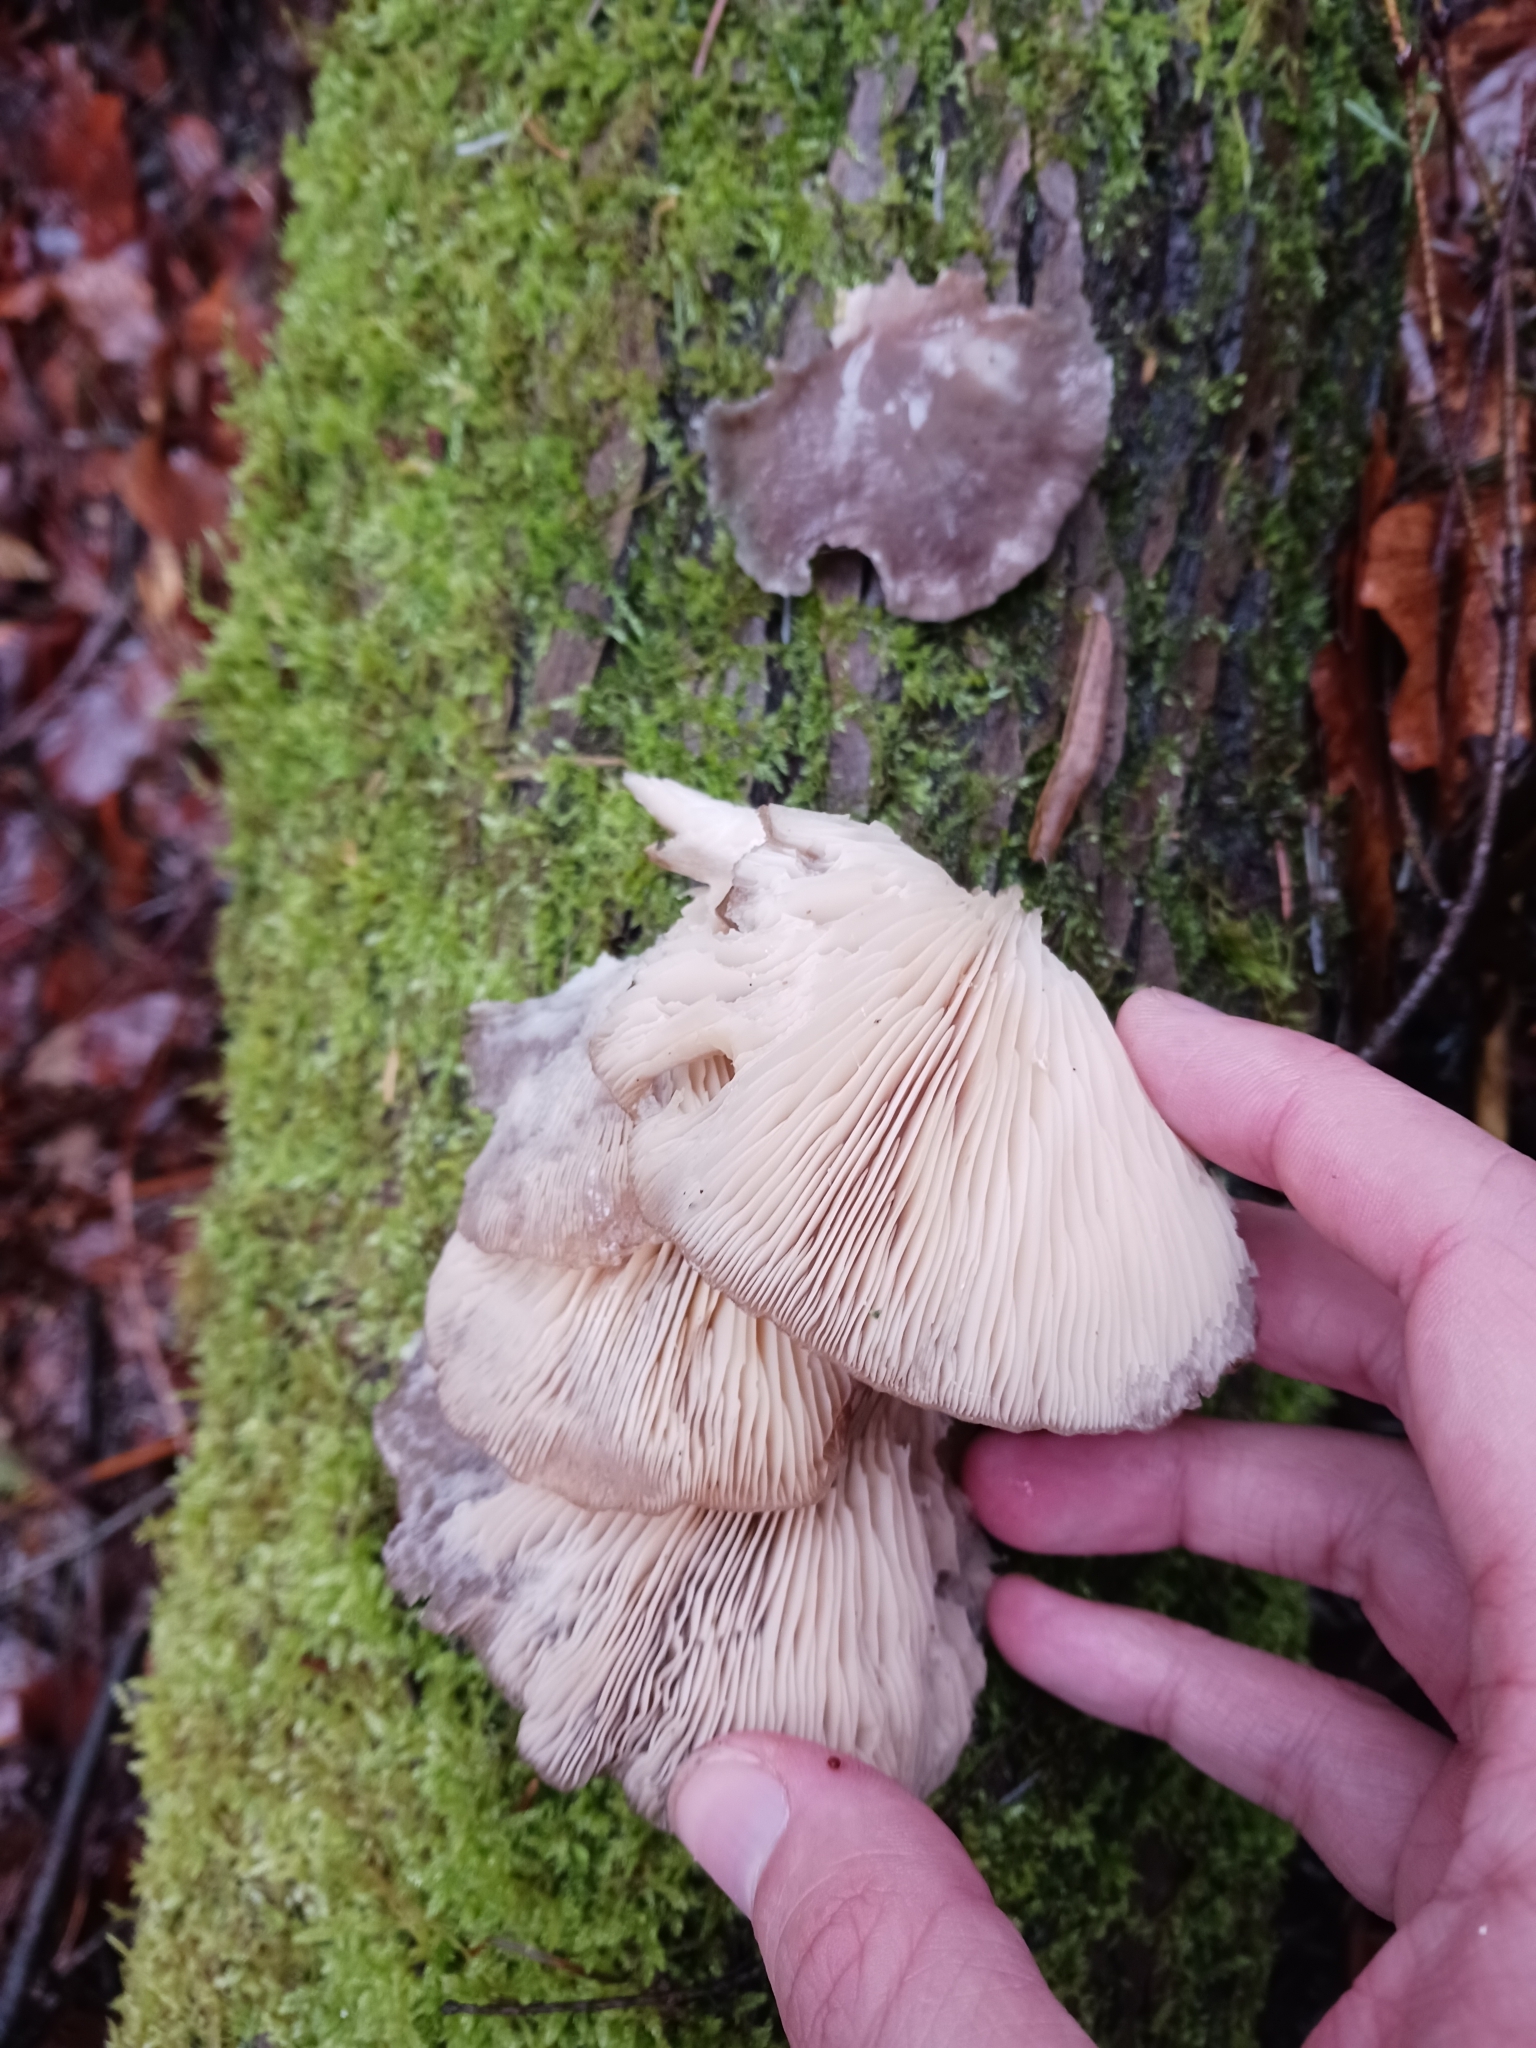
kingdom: Fungi
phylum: Basidiomycota
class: Agaricomycetes
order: Agaricales
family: Pleurotaceae
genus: Pleurotus
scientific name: Pleurotus ostreatus
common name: Oyster mushroom
